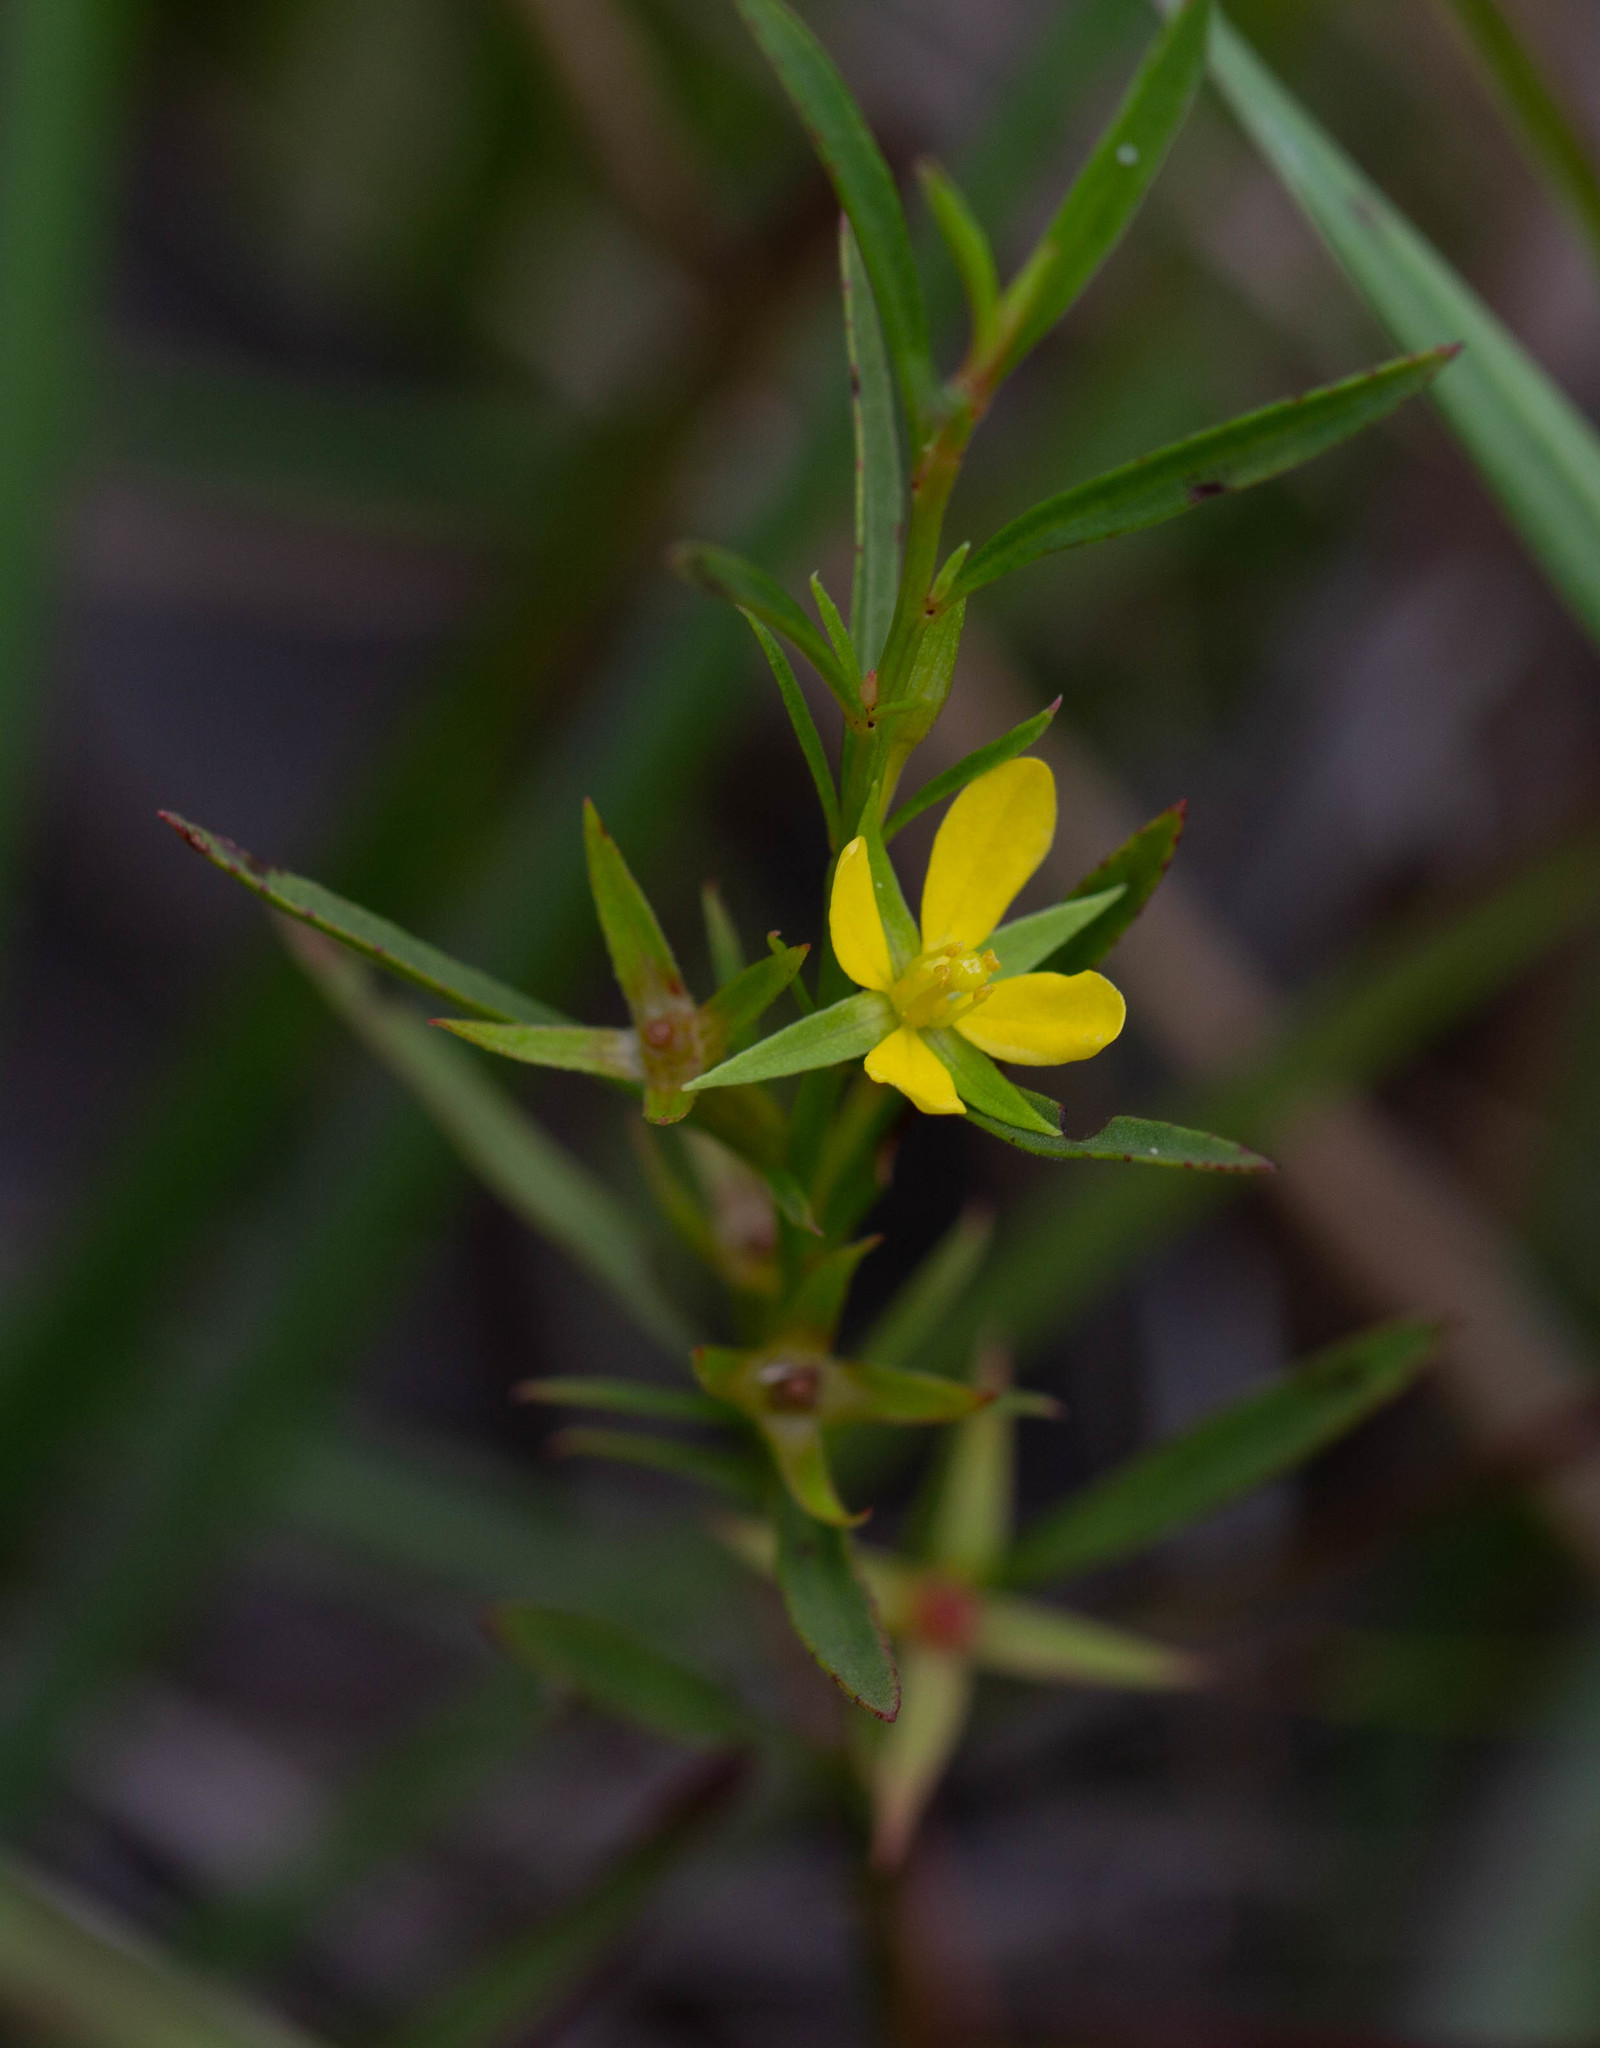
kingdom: Plantae
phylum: Tracheophyta
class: Magnoliopsida
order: Myrtales
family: Onagraceae
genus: Ludwigia
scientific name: Ludwigia linearis
